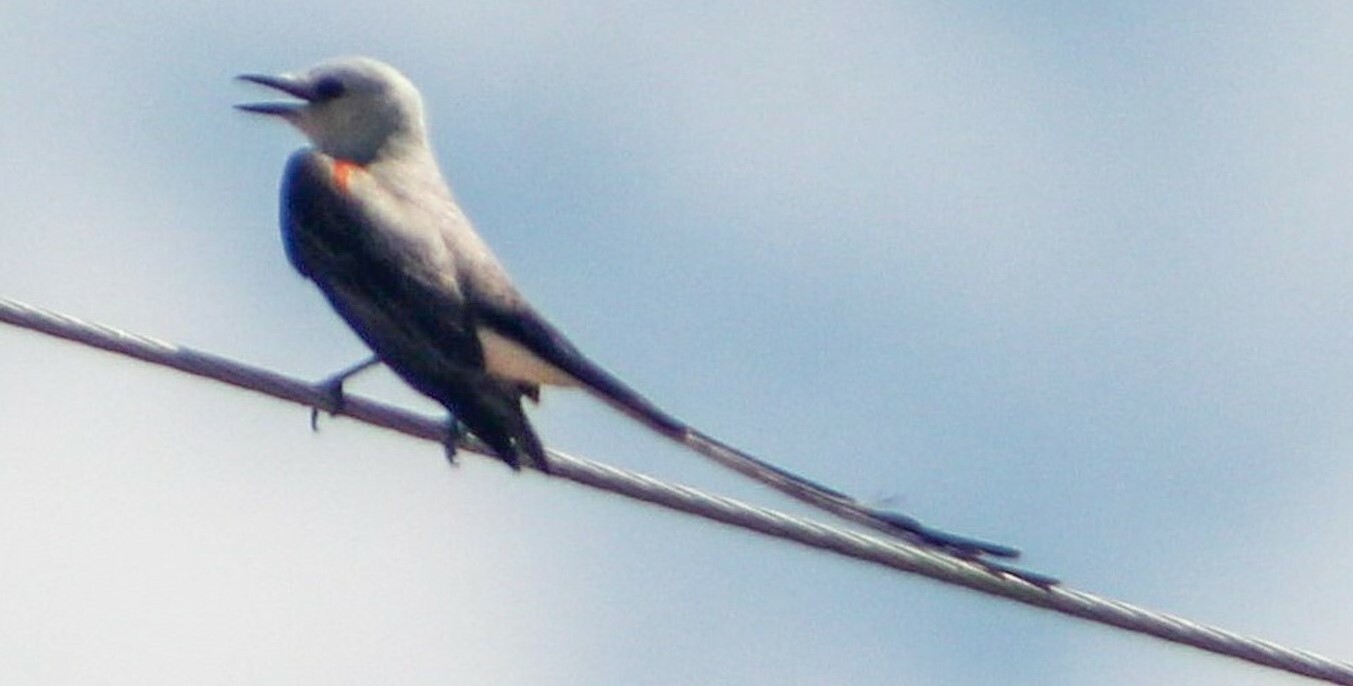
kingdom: Animalia
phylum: Chordata
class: Aves
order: Passeriformes
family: Tyrannidae
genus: Tyrannus
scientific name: Tyrannus forficatus
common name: Scissor-tailed flycatcher
